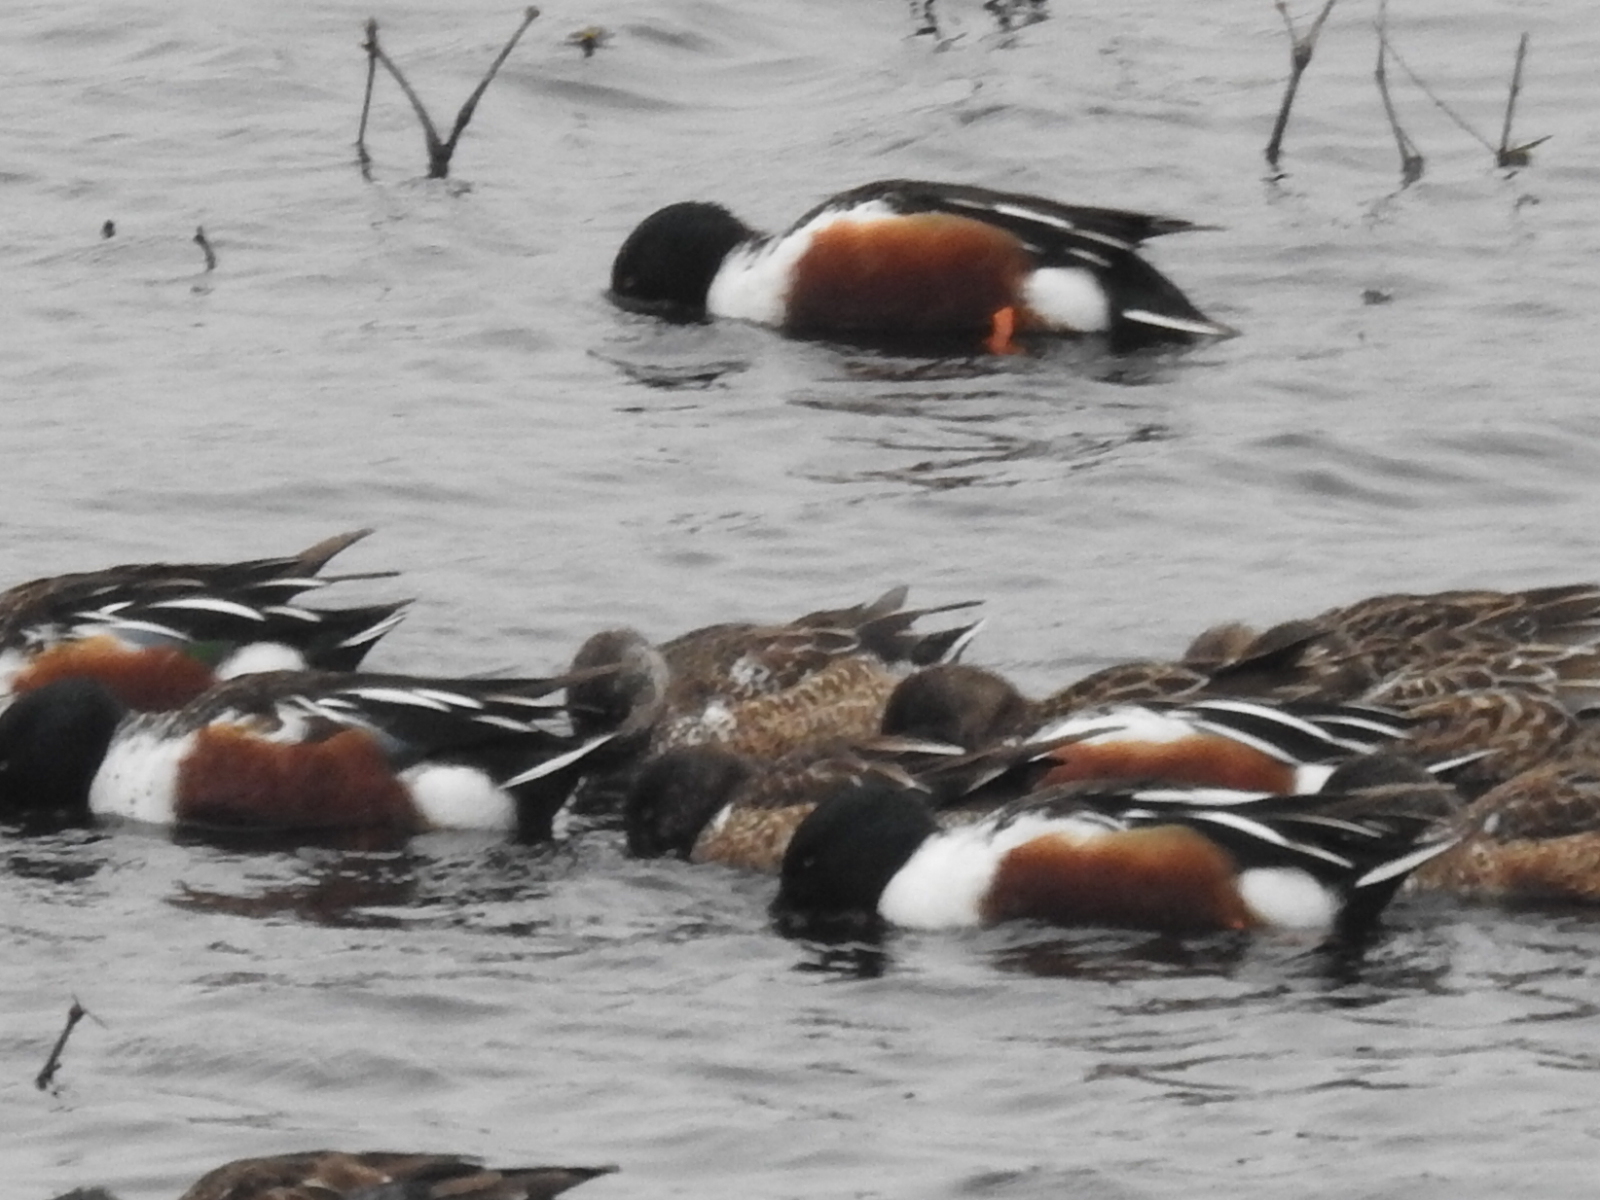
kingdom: Animalia
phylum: Chordata
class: Aves
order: Anseriformes
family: Anatidae
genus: Spatula
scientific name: Spatula clypeata
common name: Northern shoveler
